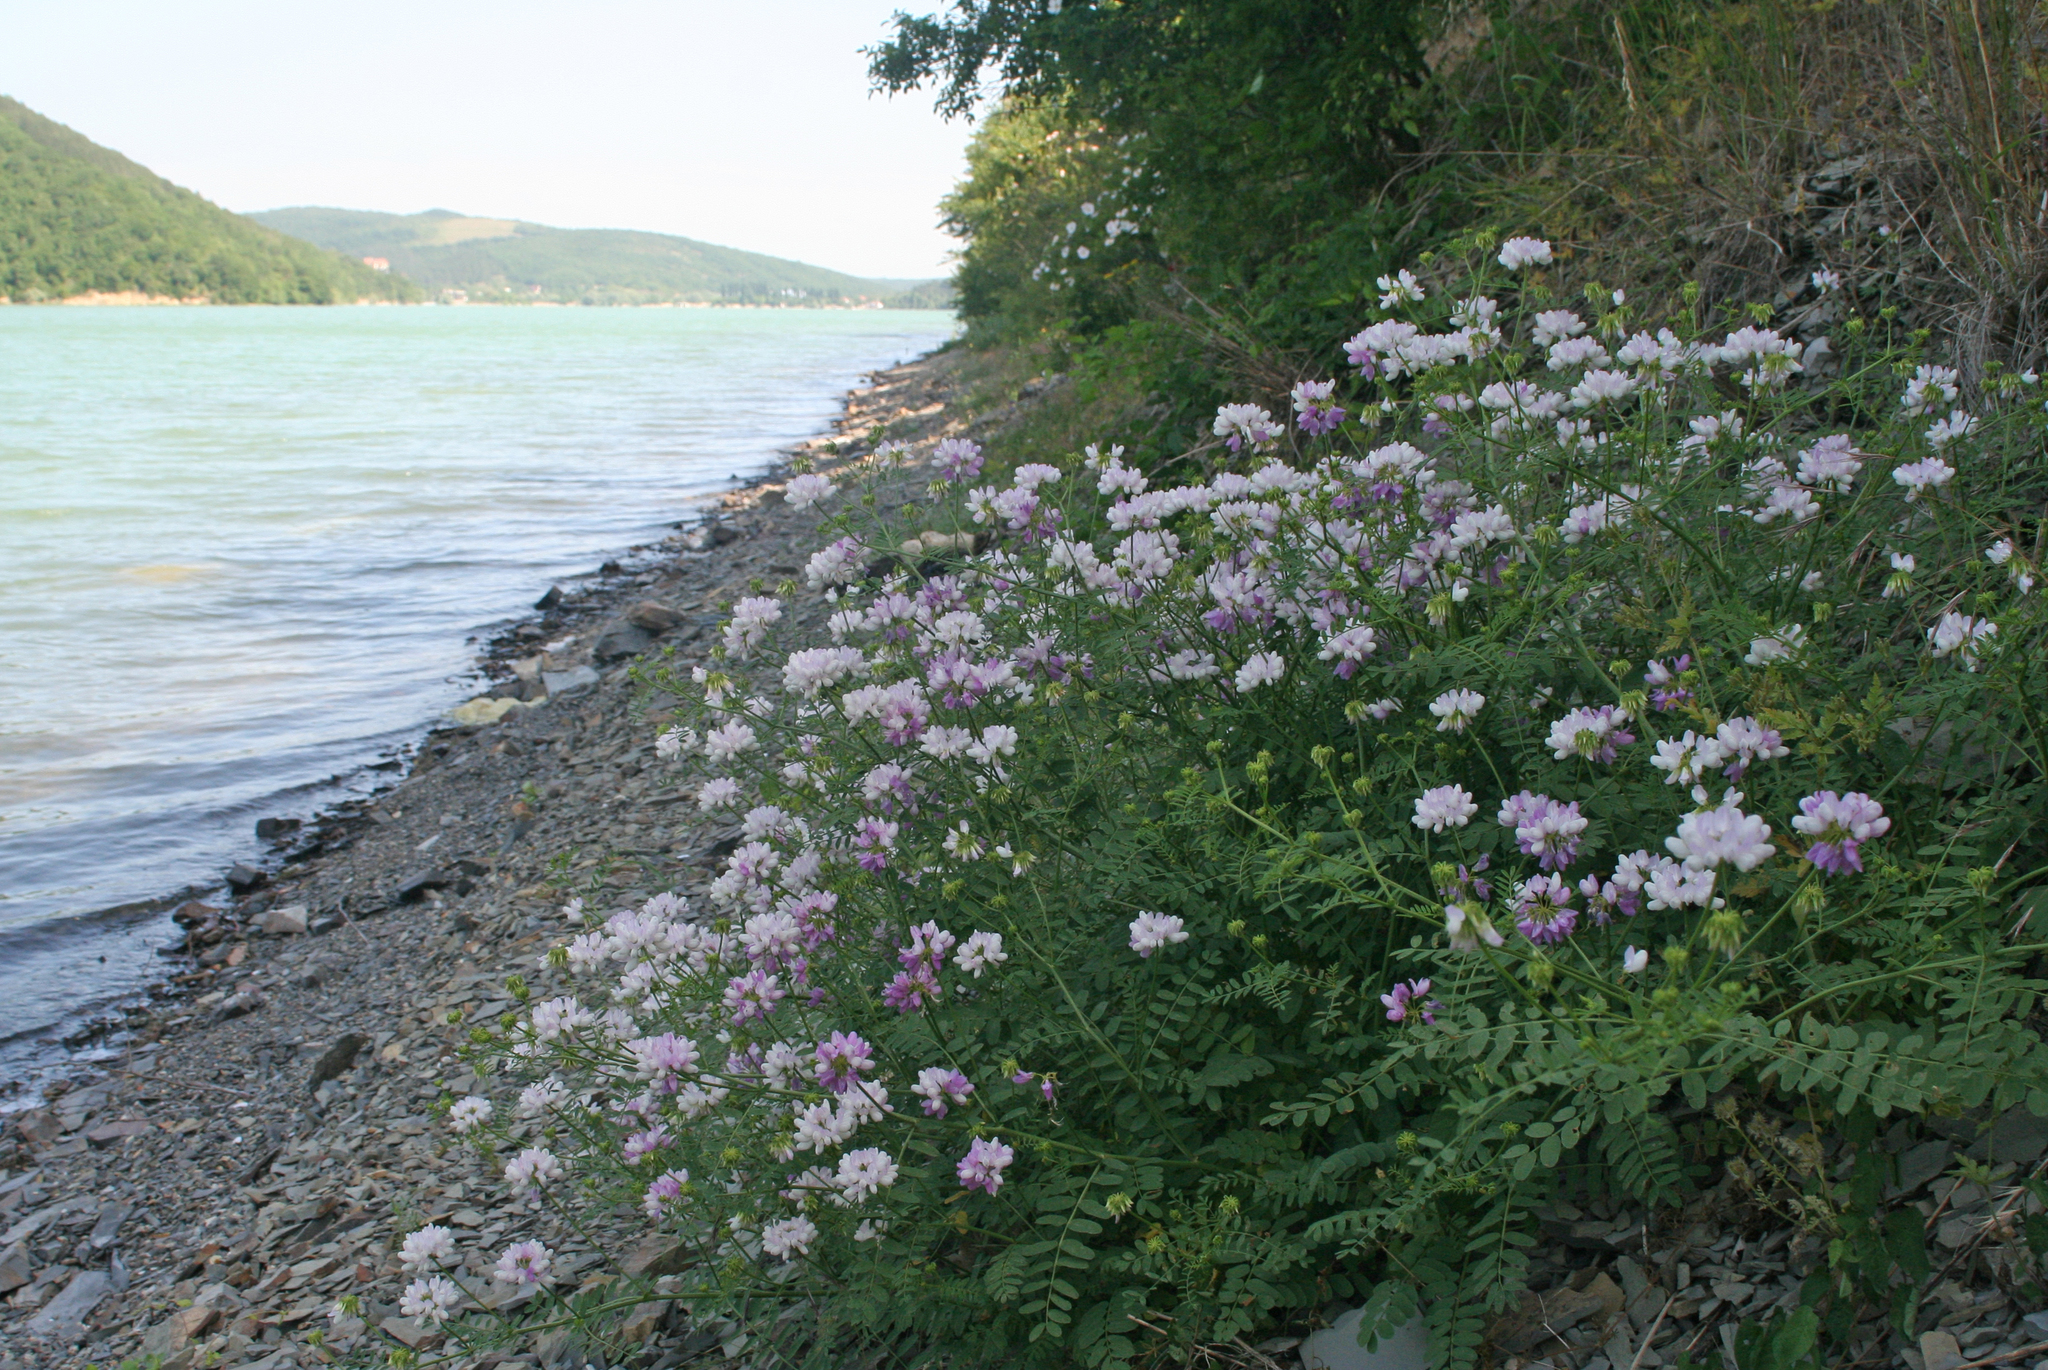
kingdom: Plantae
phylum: Tracheophyta
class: Magnoliopsida
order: Fabales
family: Fabaceae
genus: Coronilla
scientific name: Coronilla varia
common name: Crownvetch
